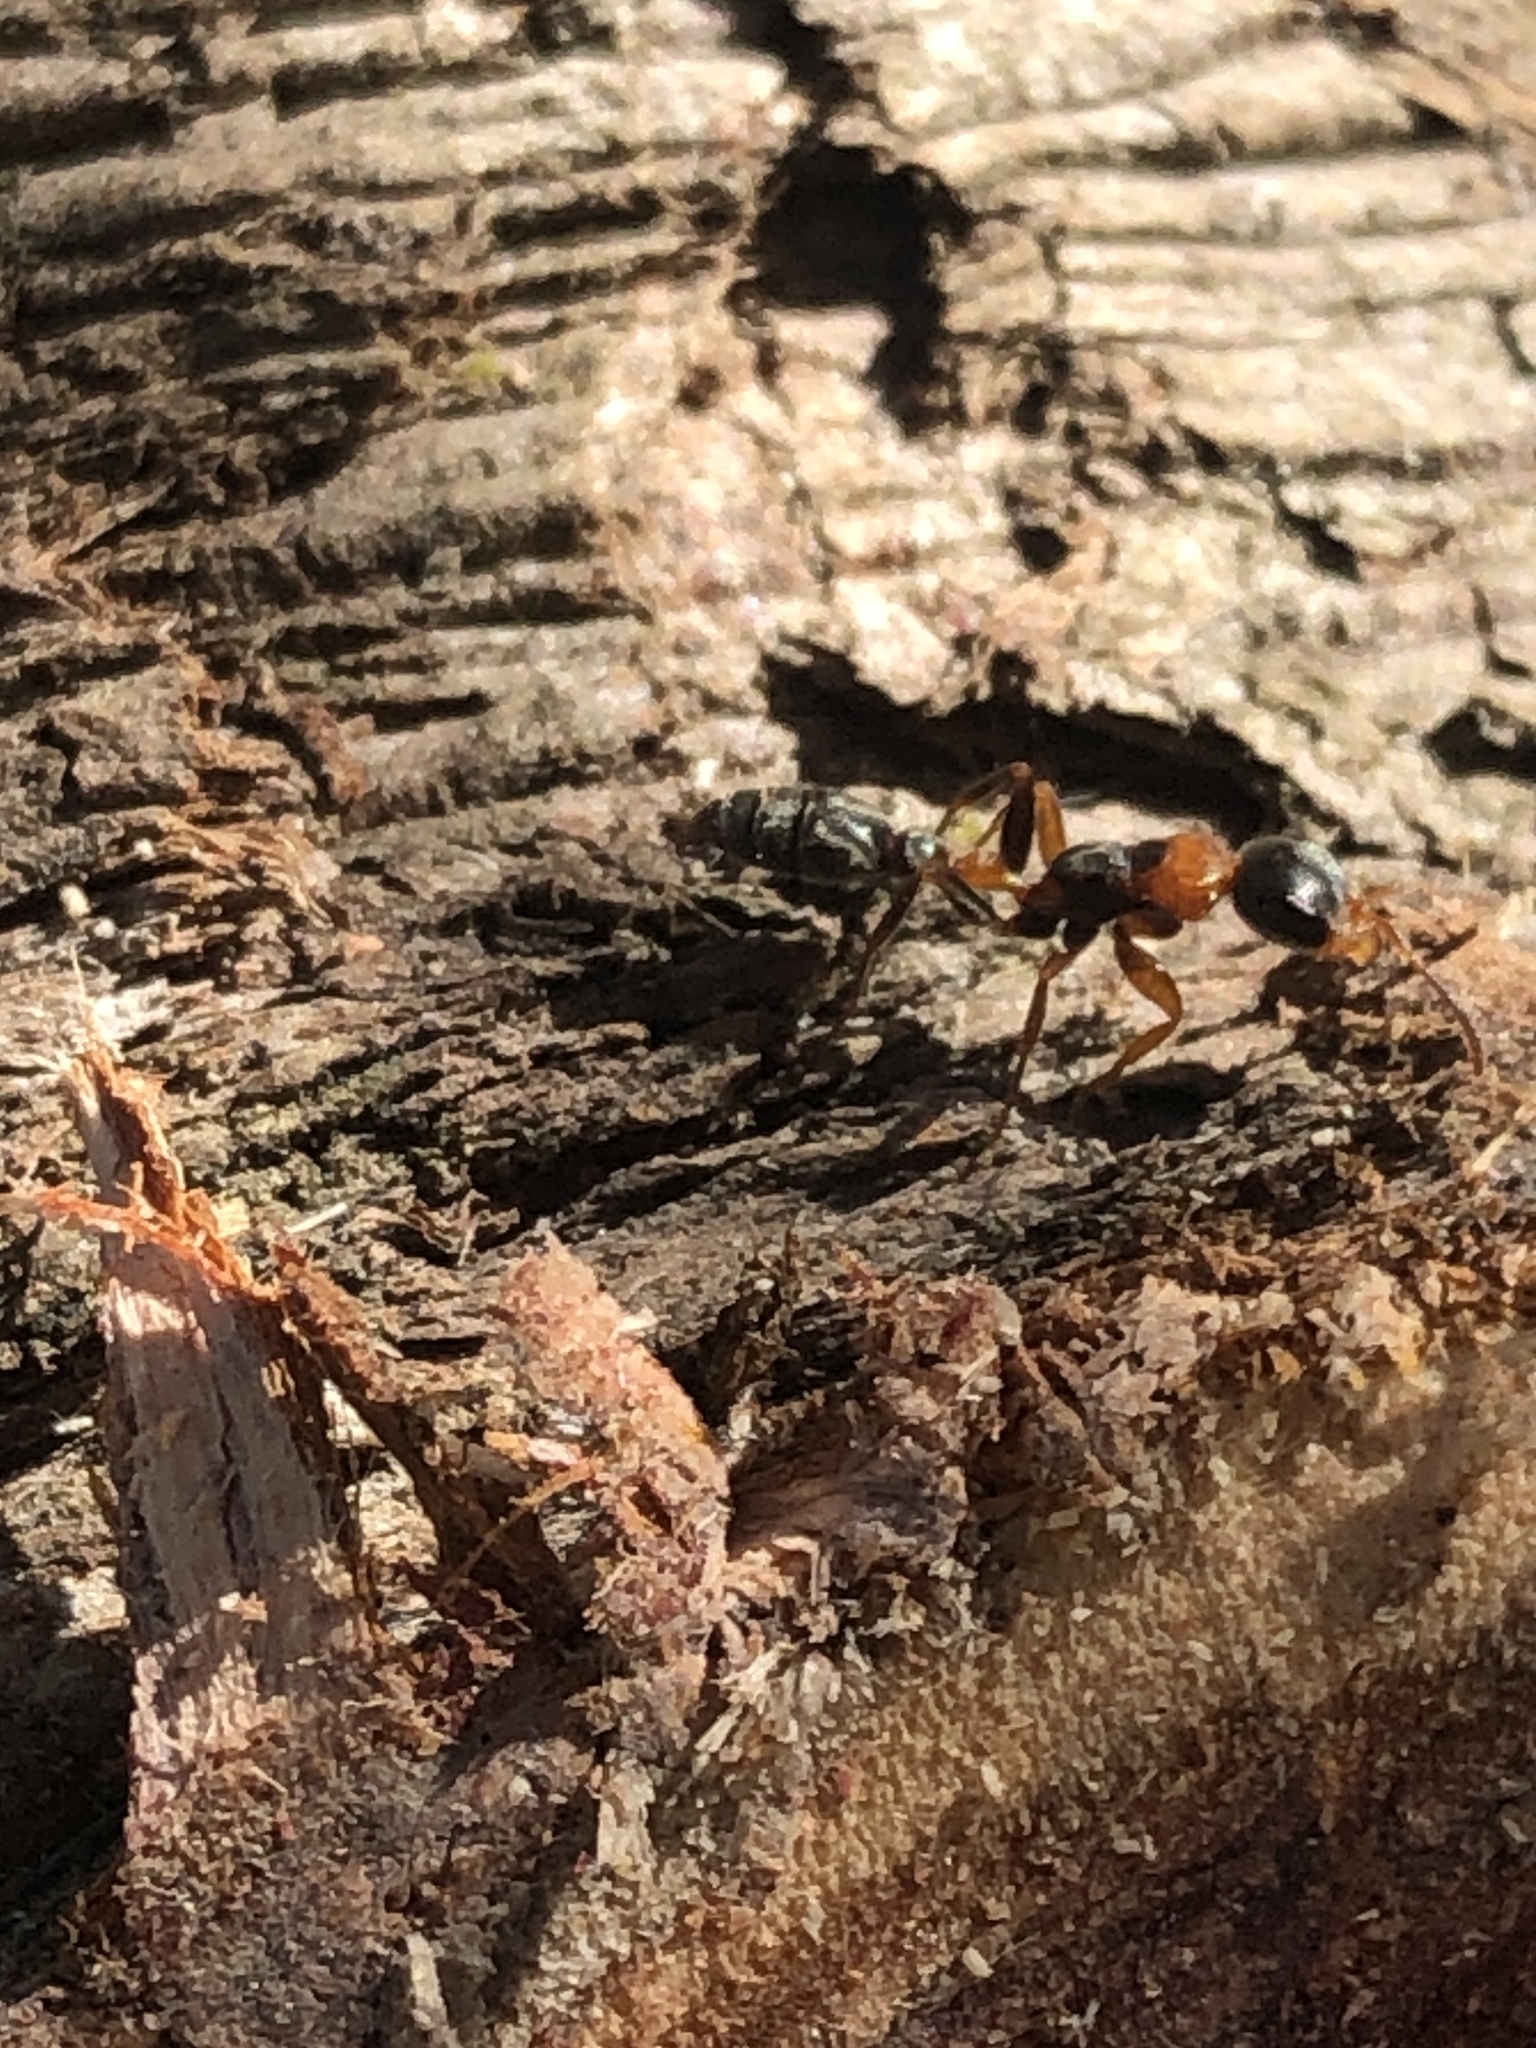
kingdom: Animalia
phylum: Arthropoda
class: Insecta
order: Hymenoptera
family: Formicidae
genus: Pseudomyrmex
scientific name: Pseudomyrmex gracilis
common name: Graceful twig ant
